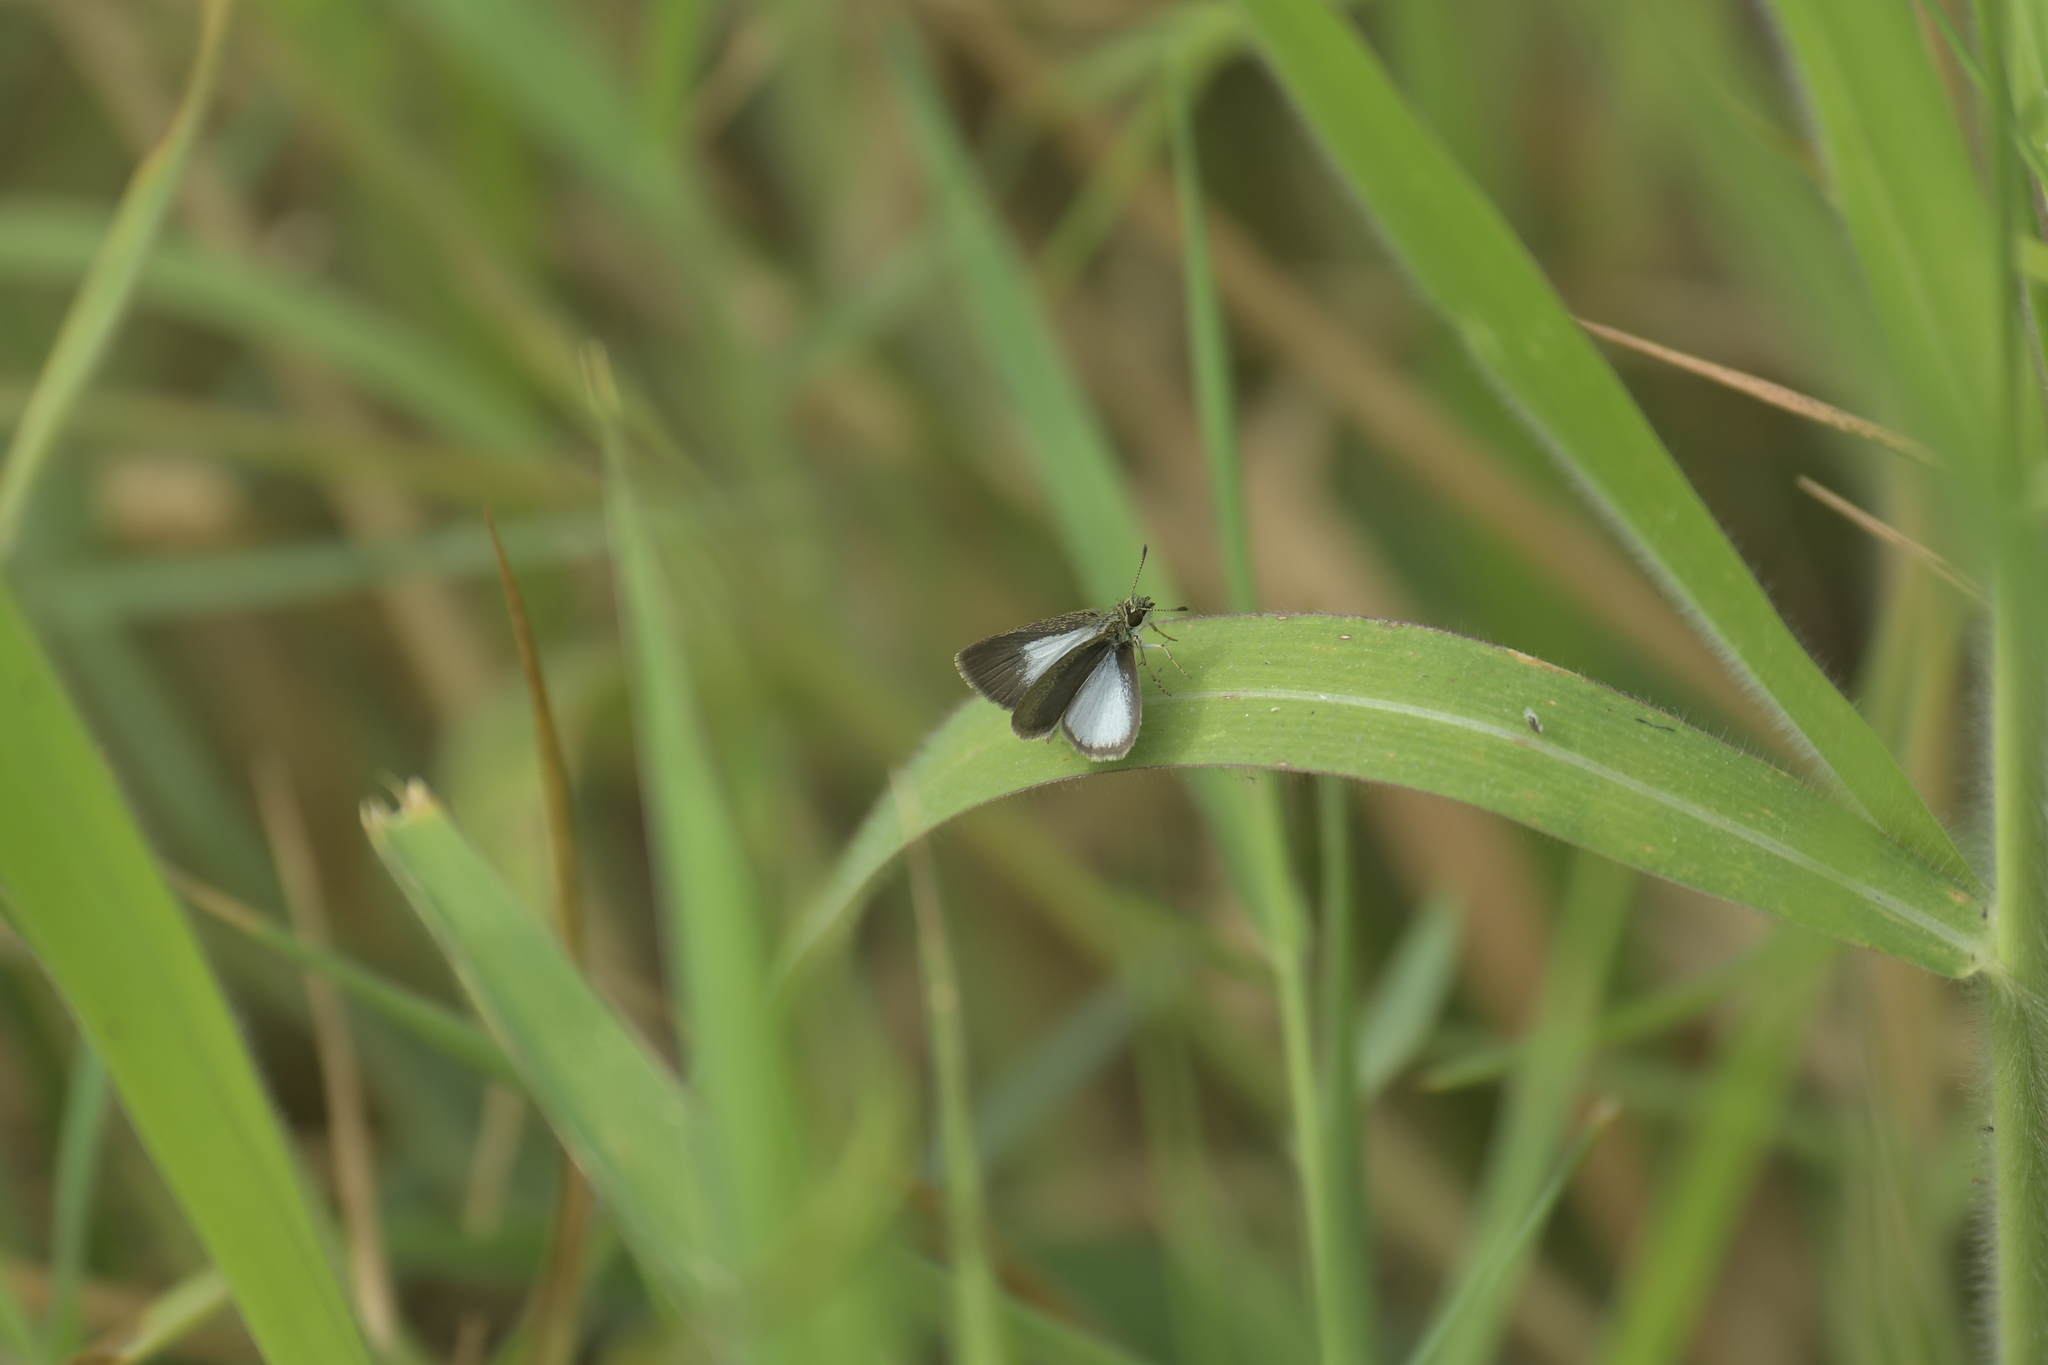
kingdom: Animalia
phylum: Arthropoda
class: Insecta
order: Lepidoptera
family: Hesperiidae
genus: Aeromachus
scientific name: Aeromachus plumbeola
